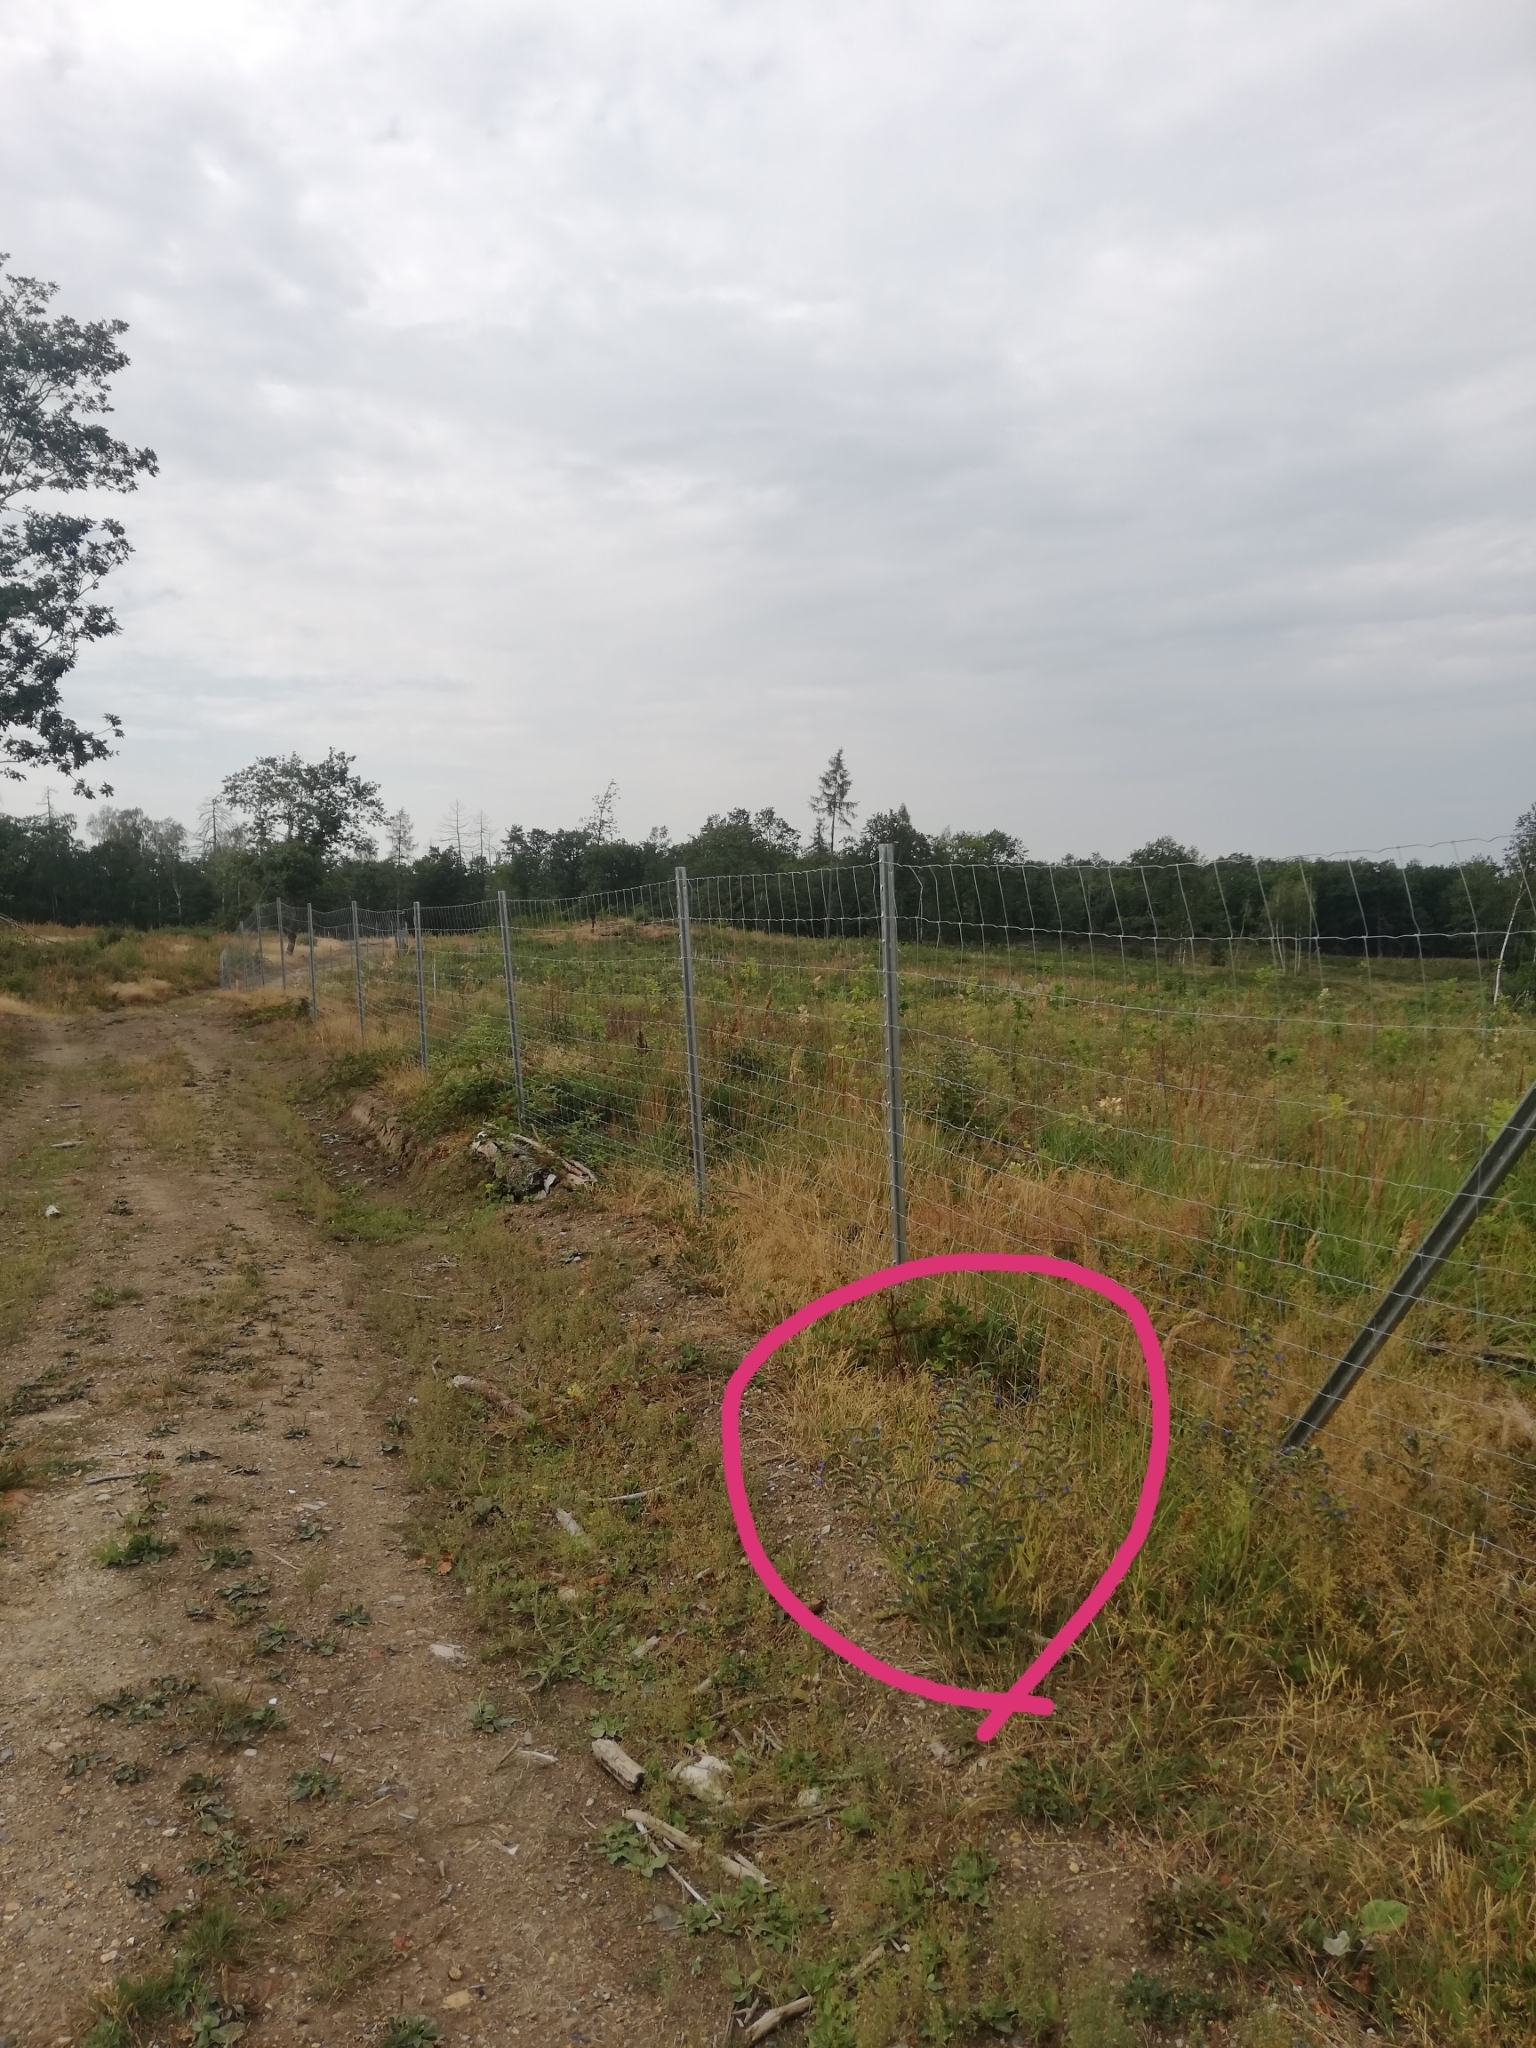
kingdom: Plantae
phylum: Tracheophyta
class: Magnoliopsida
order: Boraginales
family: Boraginaceae
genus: Echium
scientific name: Echium vulgare
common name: Common viper's bugloss
